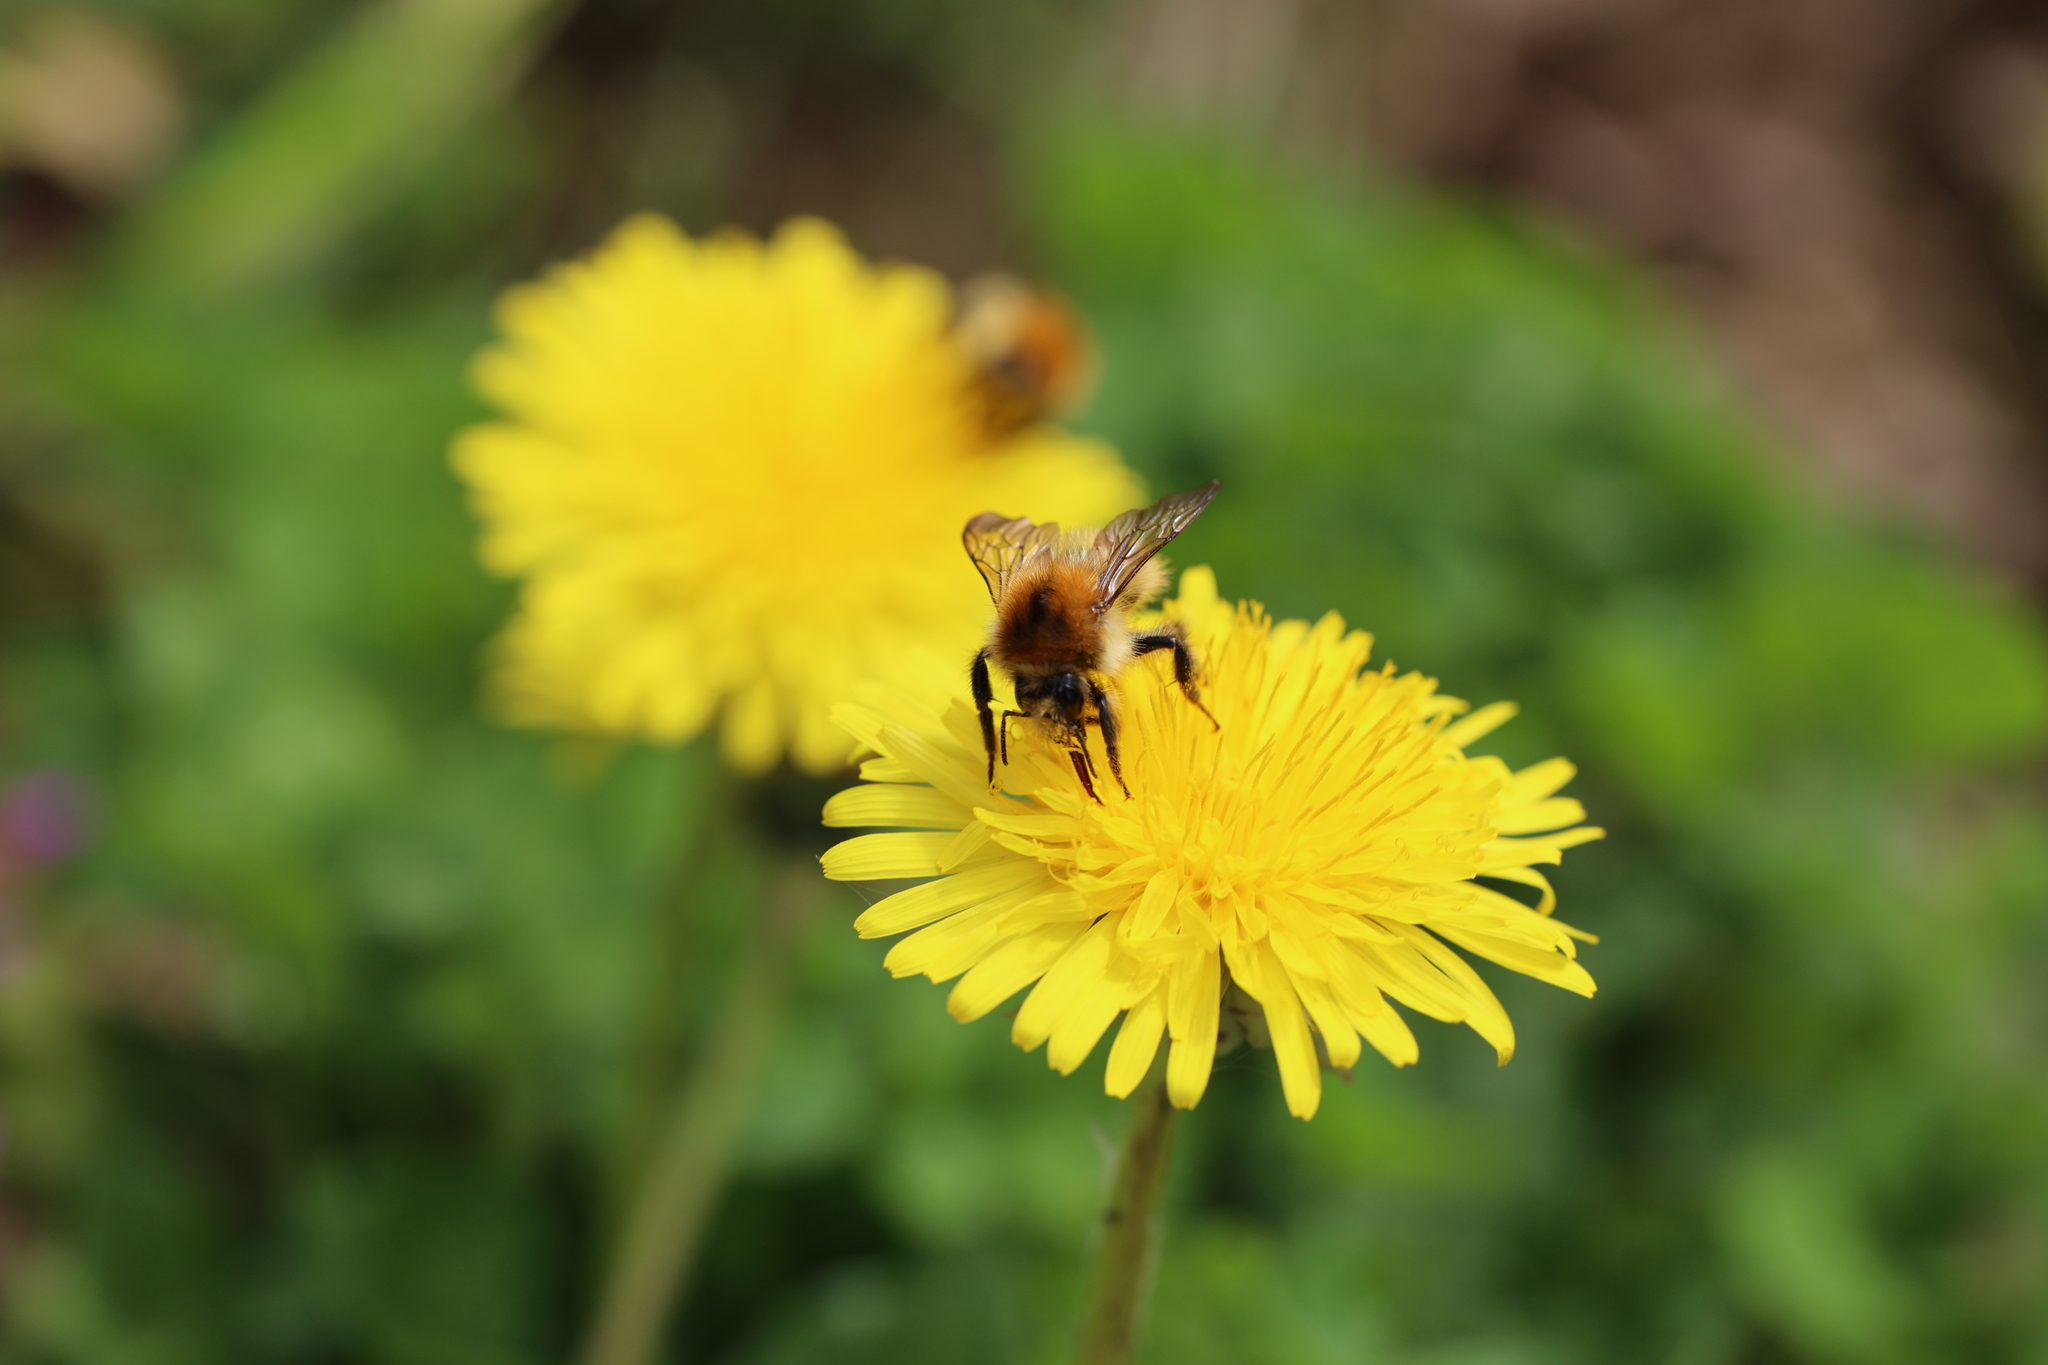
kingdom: Animalia
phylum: Arthropoda
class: Insecta
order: Hymenoptera
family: Apidae
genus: Bombus
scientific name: Bombus pascuorum
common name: Common carder bee
